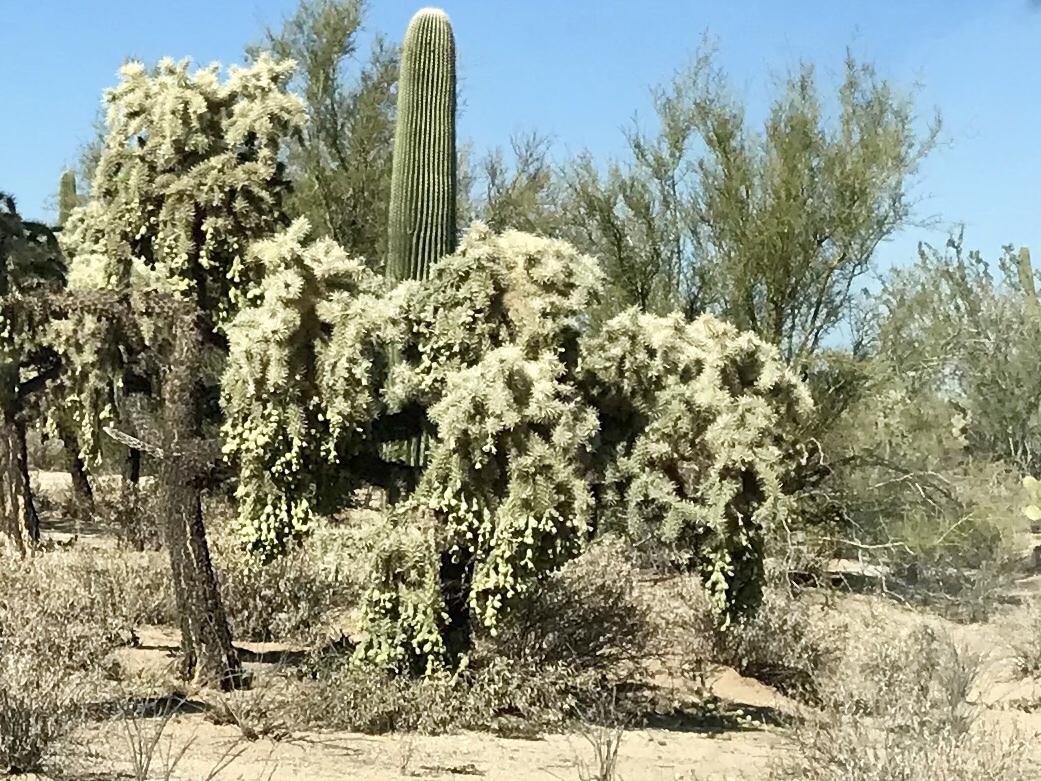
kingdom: Plantae
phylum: Tracheophyta
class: Magnoliopsida
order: Caryophyllales
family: Cactaceae
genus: Cylindropuntia
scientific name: Cylindropuntia fulgida
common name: Jumping cholla
